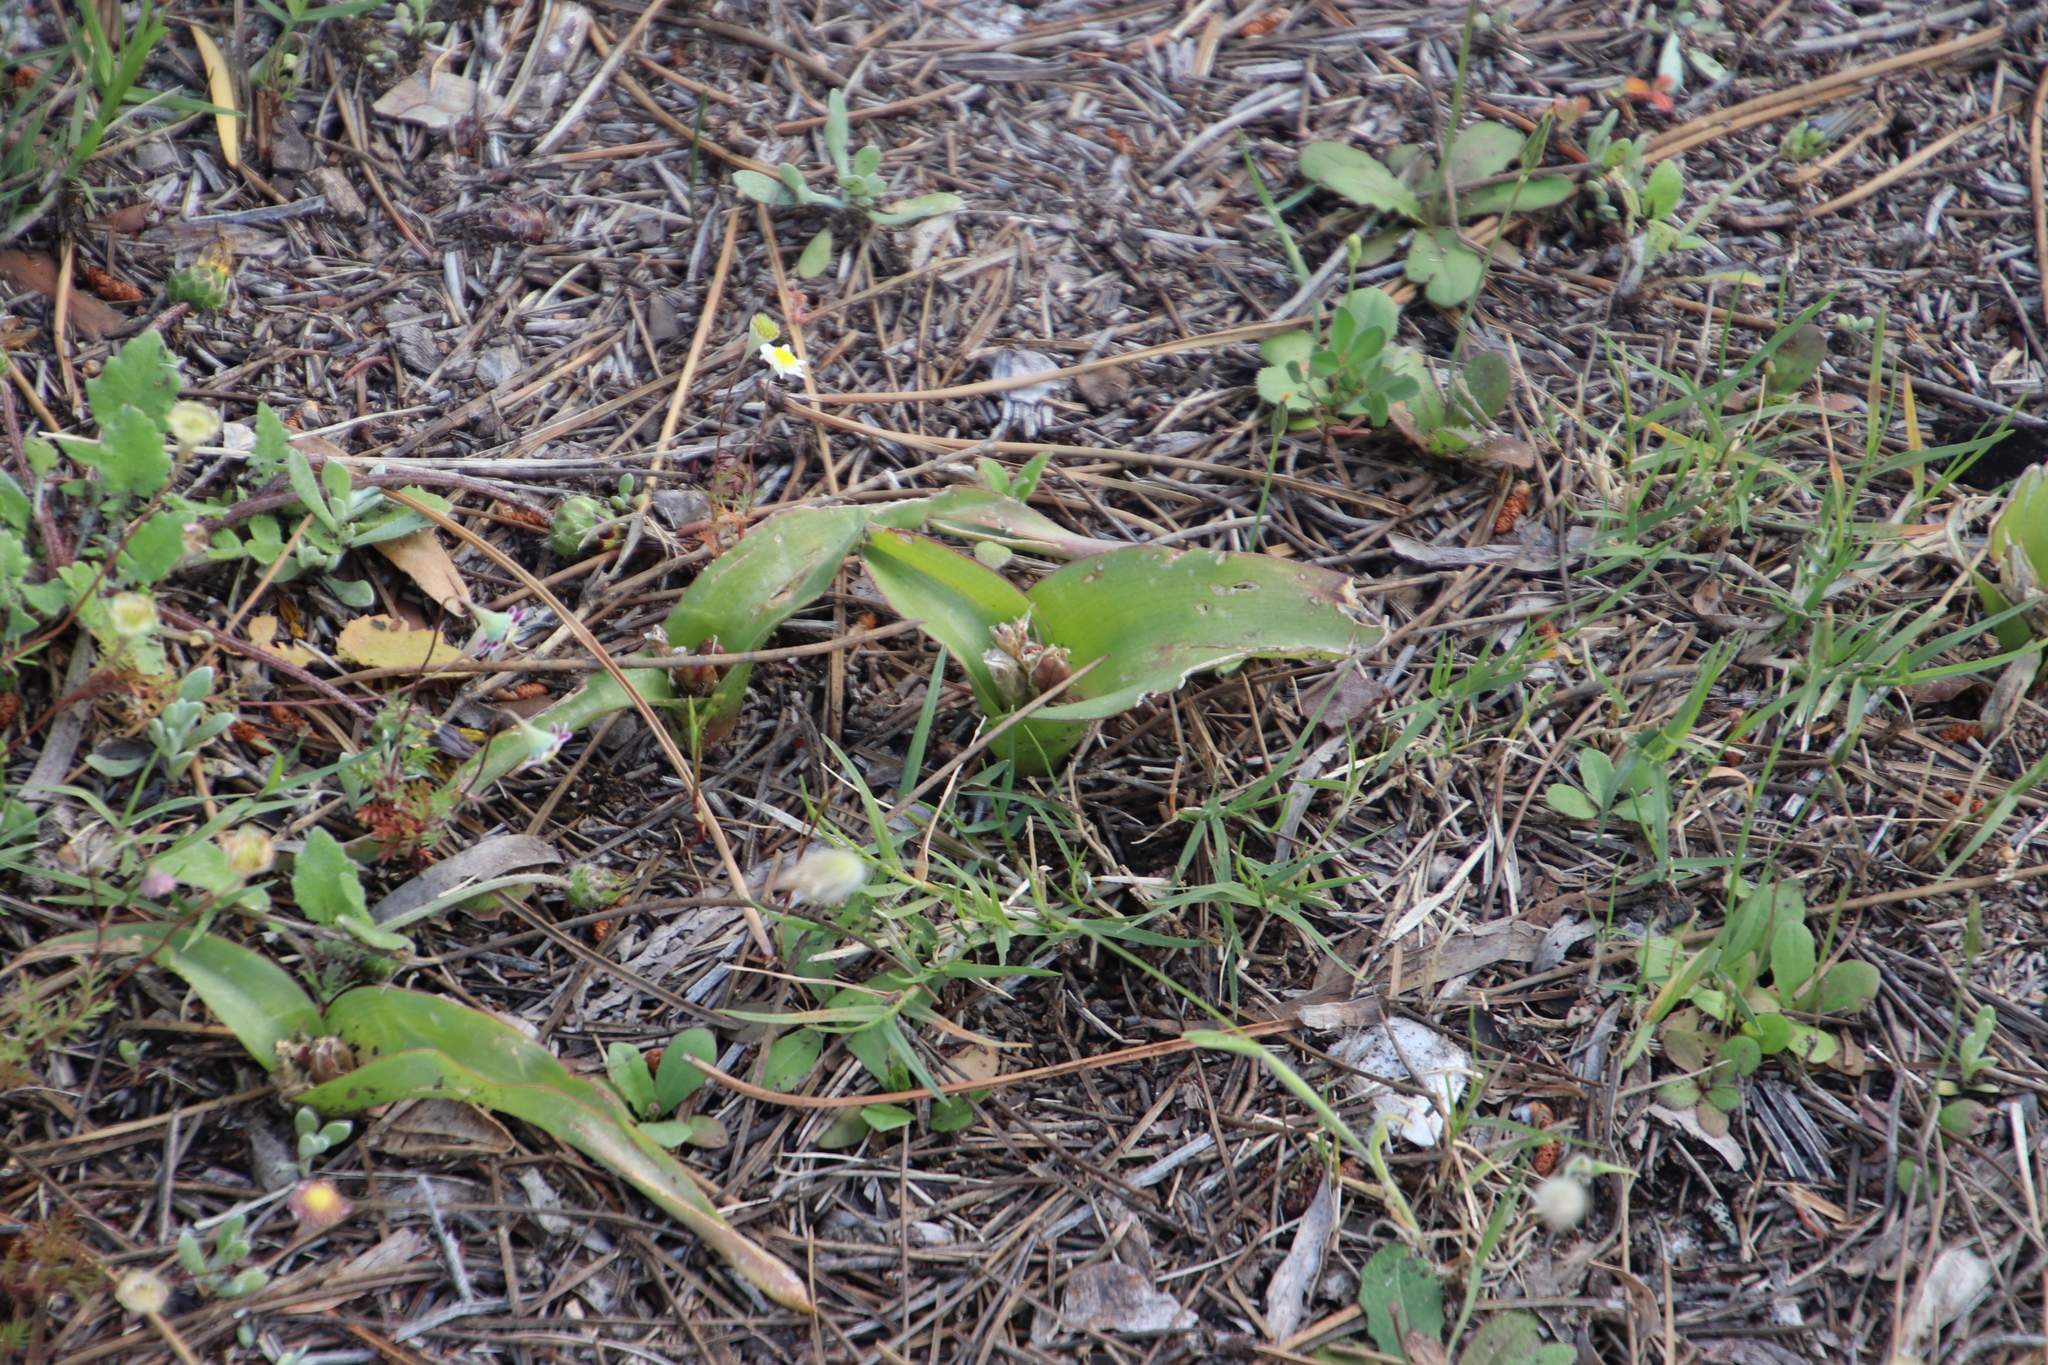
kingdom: Plantae
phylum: Tracheophyta
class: Liliopsida
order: Asparagales
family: Asparagaceae
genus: Lachenalia
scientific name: Lachenalia reflexa
